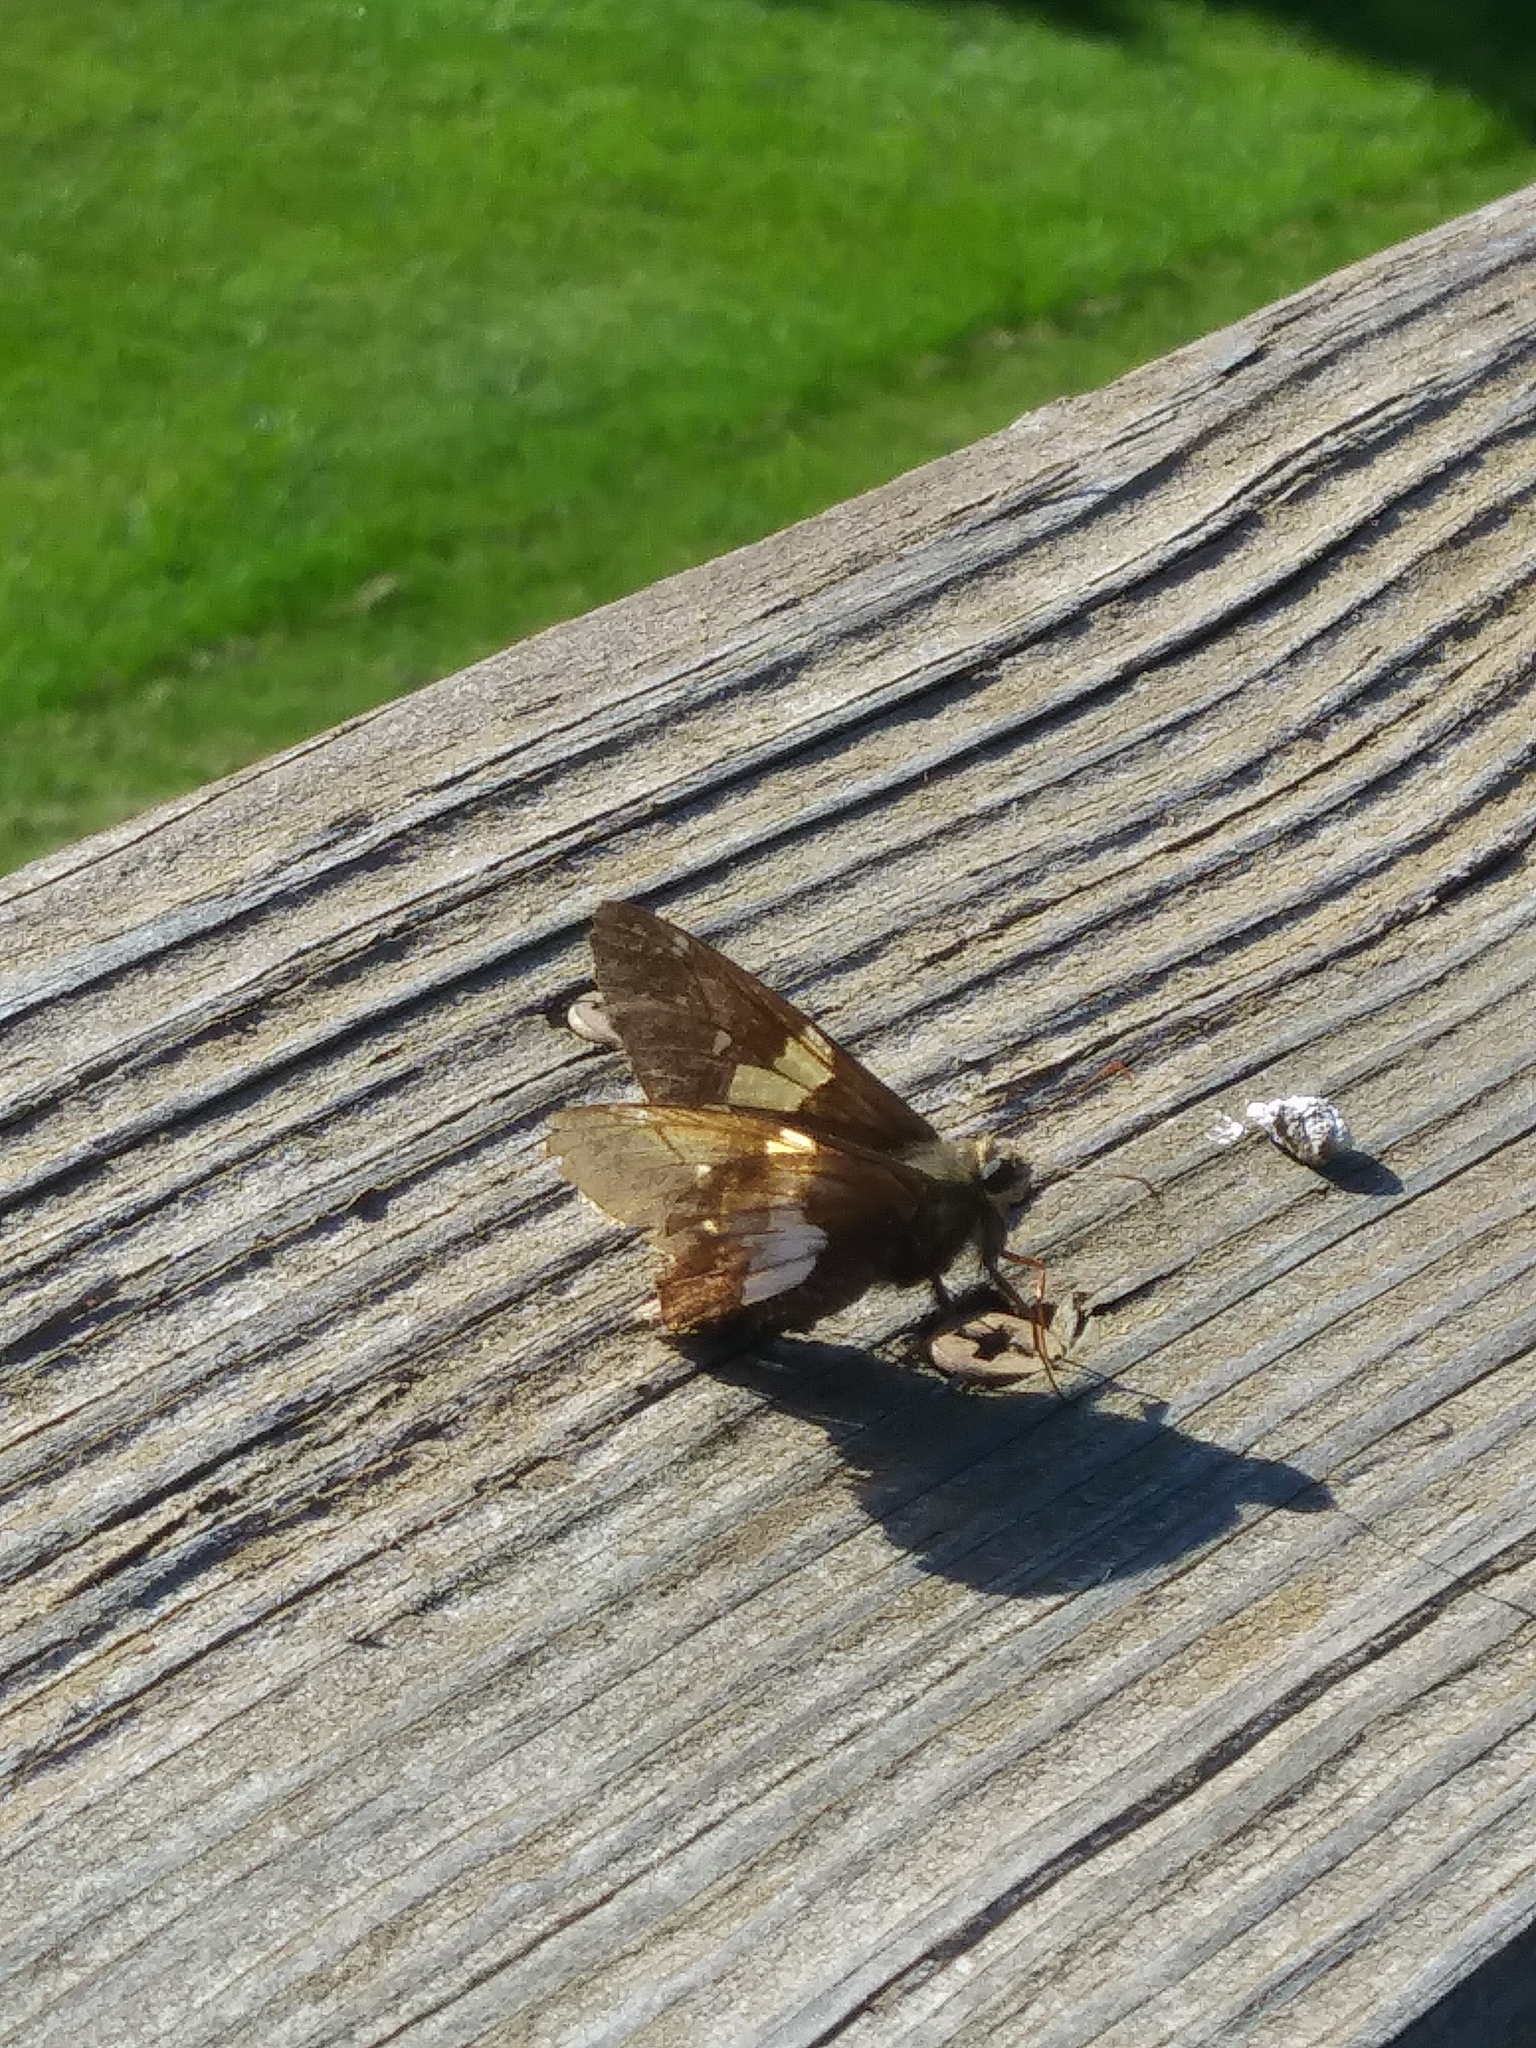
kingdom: Animalia
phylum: Arthropoda
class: Insecta
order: Lepidoptera
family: Hesperiidae
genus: Epargyreus
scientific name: Epargyreus clarus
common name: Silver-spotted skipper
